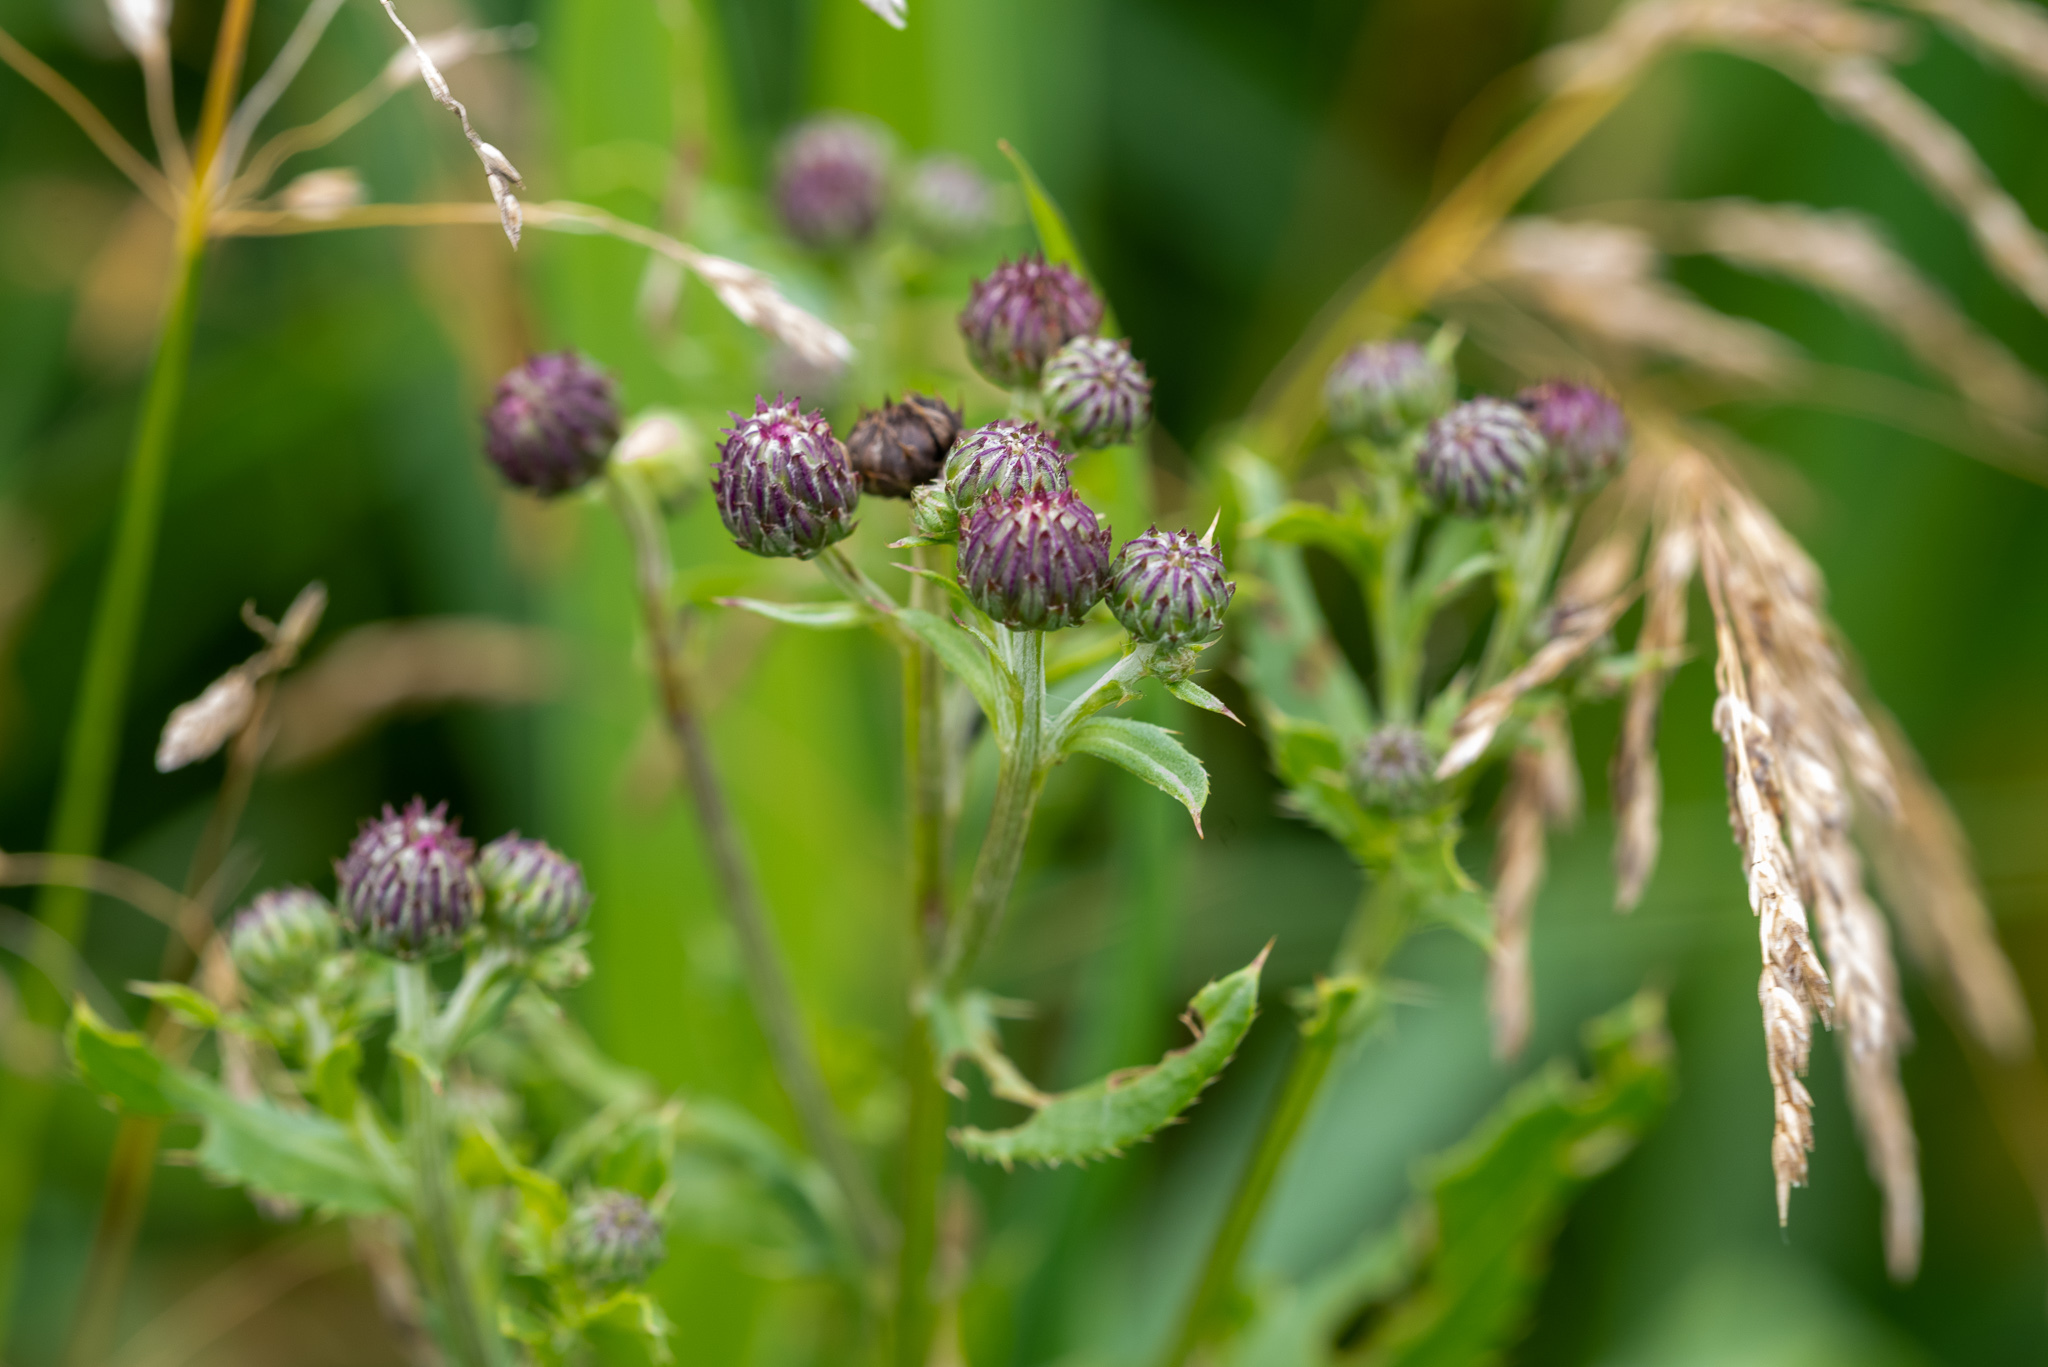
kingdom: Plantae
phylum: Tracheophyta
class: Magnoliopsida
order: Asterales
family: Asteraceae
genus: Cirsium
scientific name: Cirsium arvense
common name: Creeping thistle
